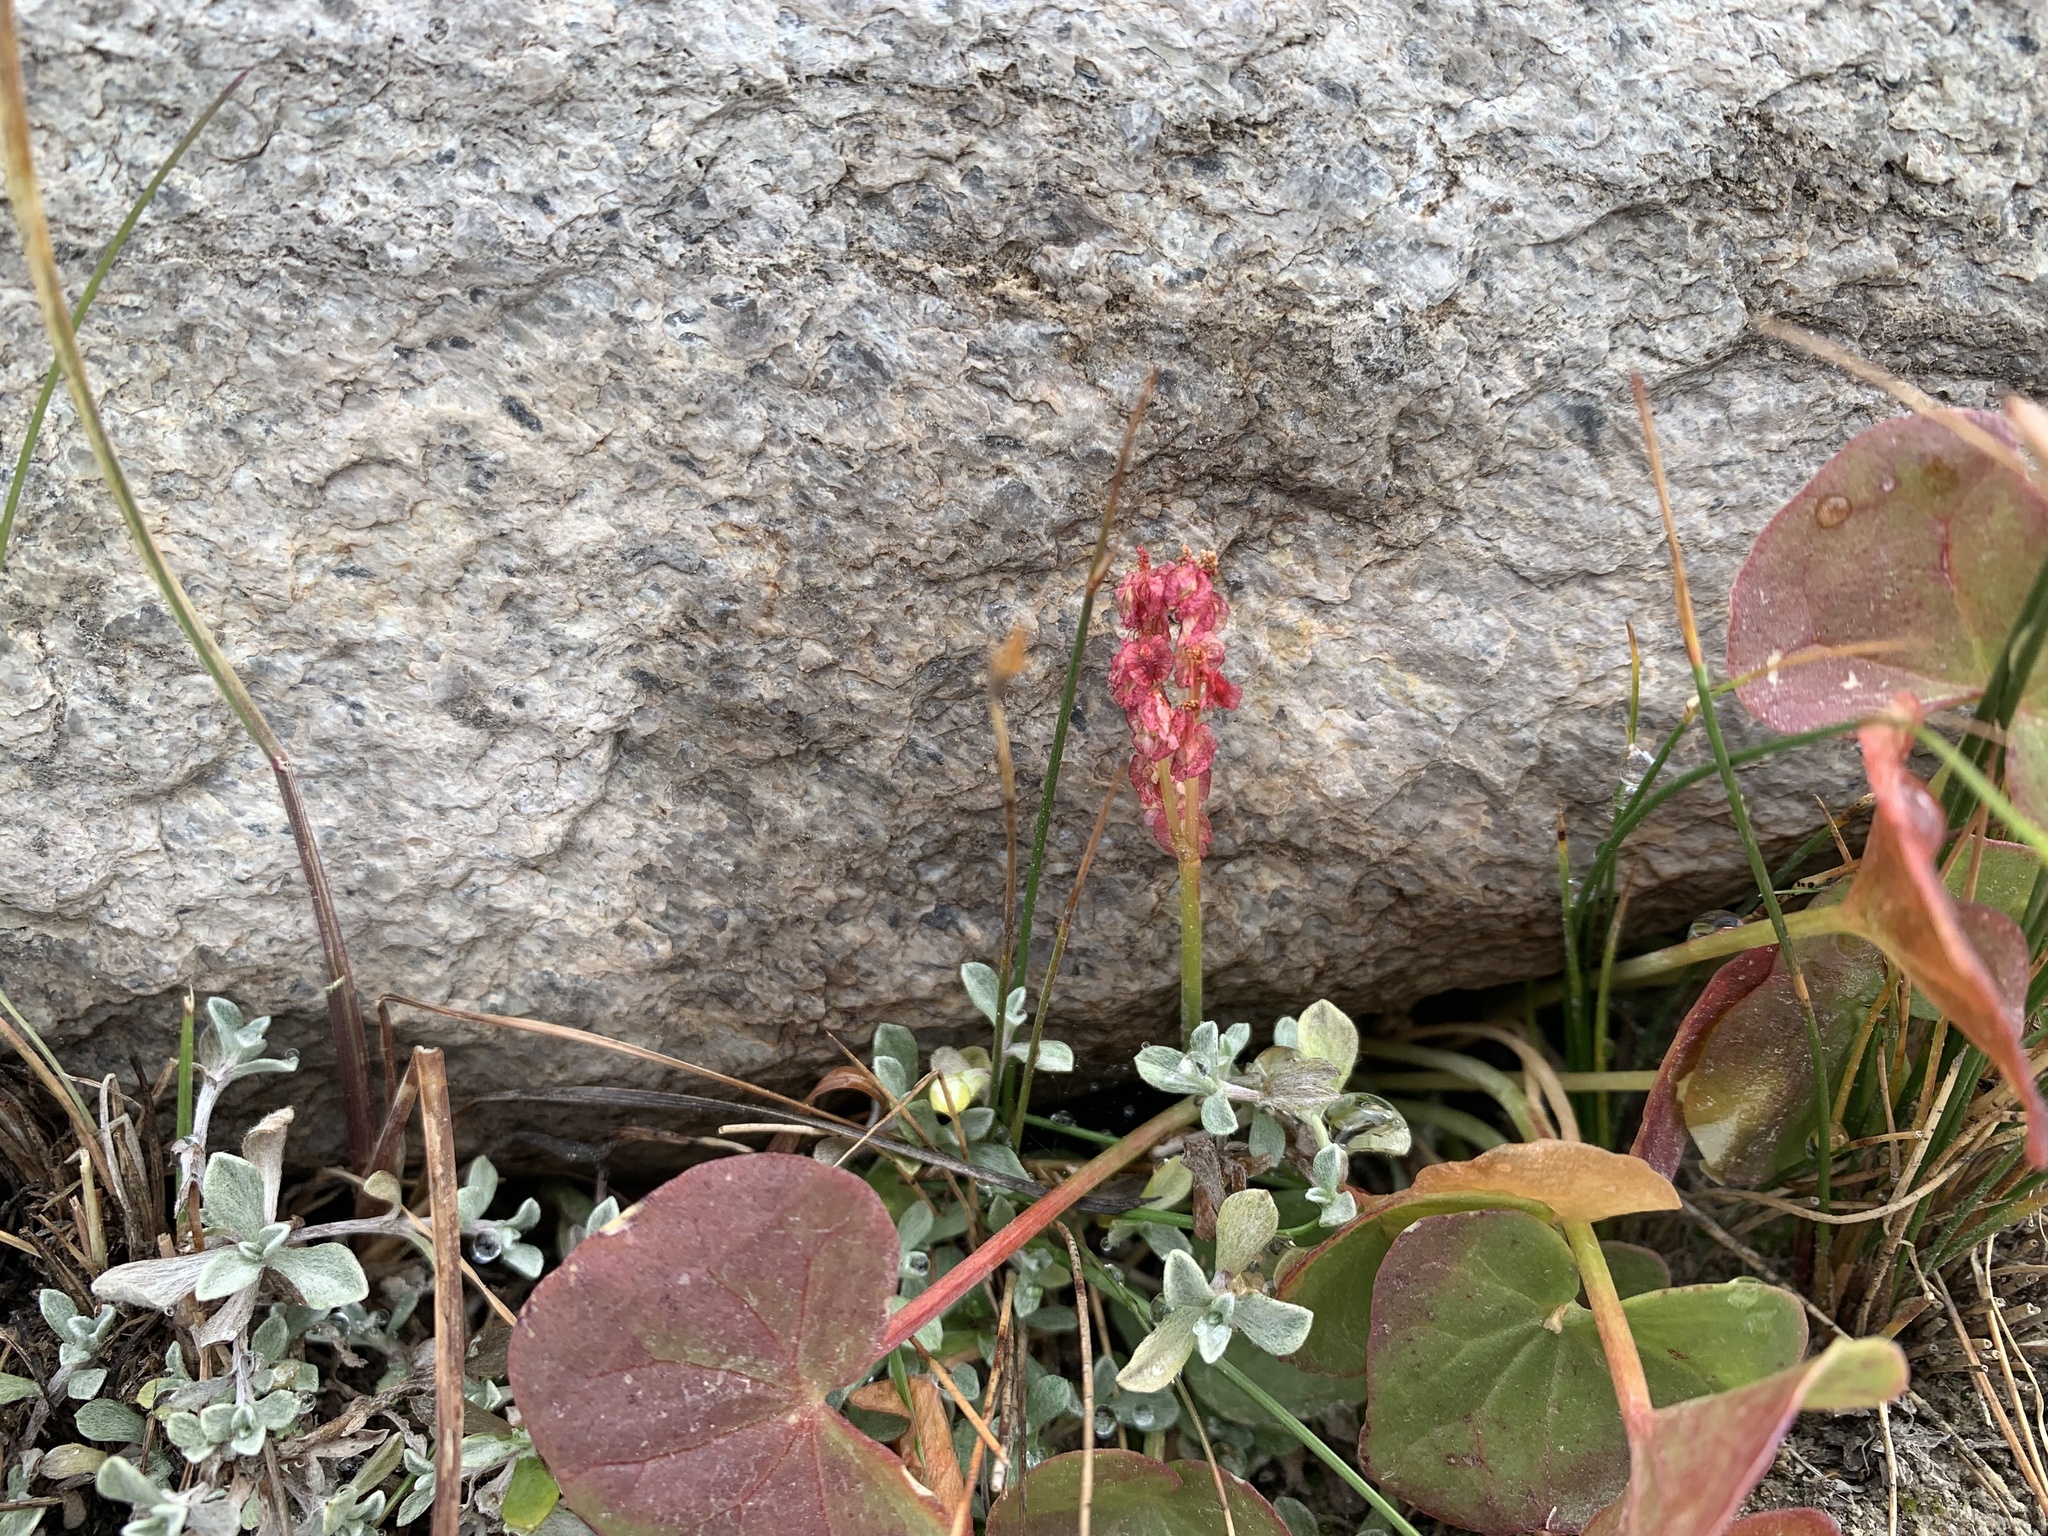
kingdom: Plantae
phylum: Tracheophyta
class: Magnoliopsida
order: Caryophyllales
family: Polygonaceae
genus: Oxyria
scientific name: Oxyria digyna
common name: Alpine mountain-sorrel
